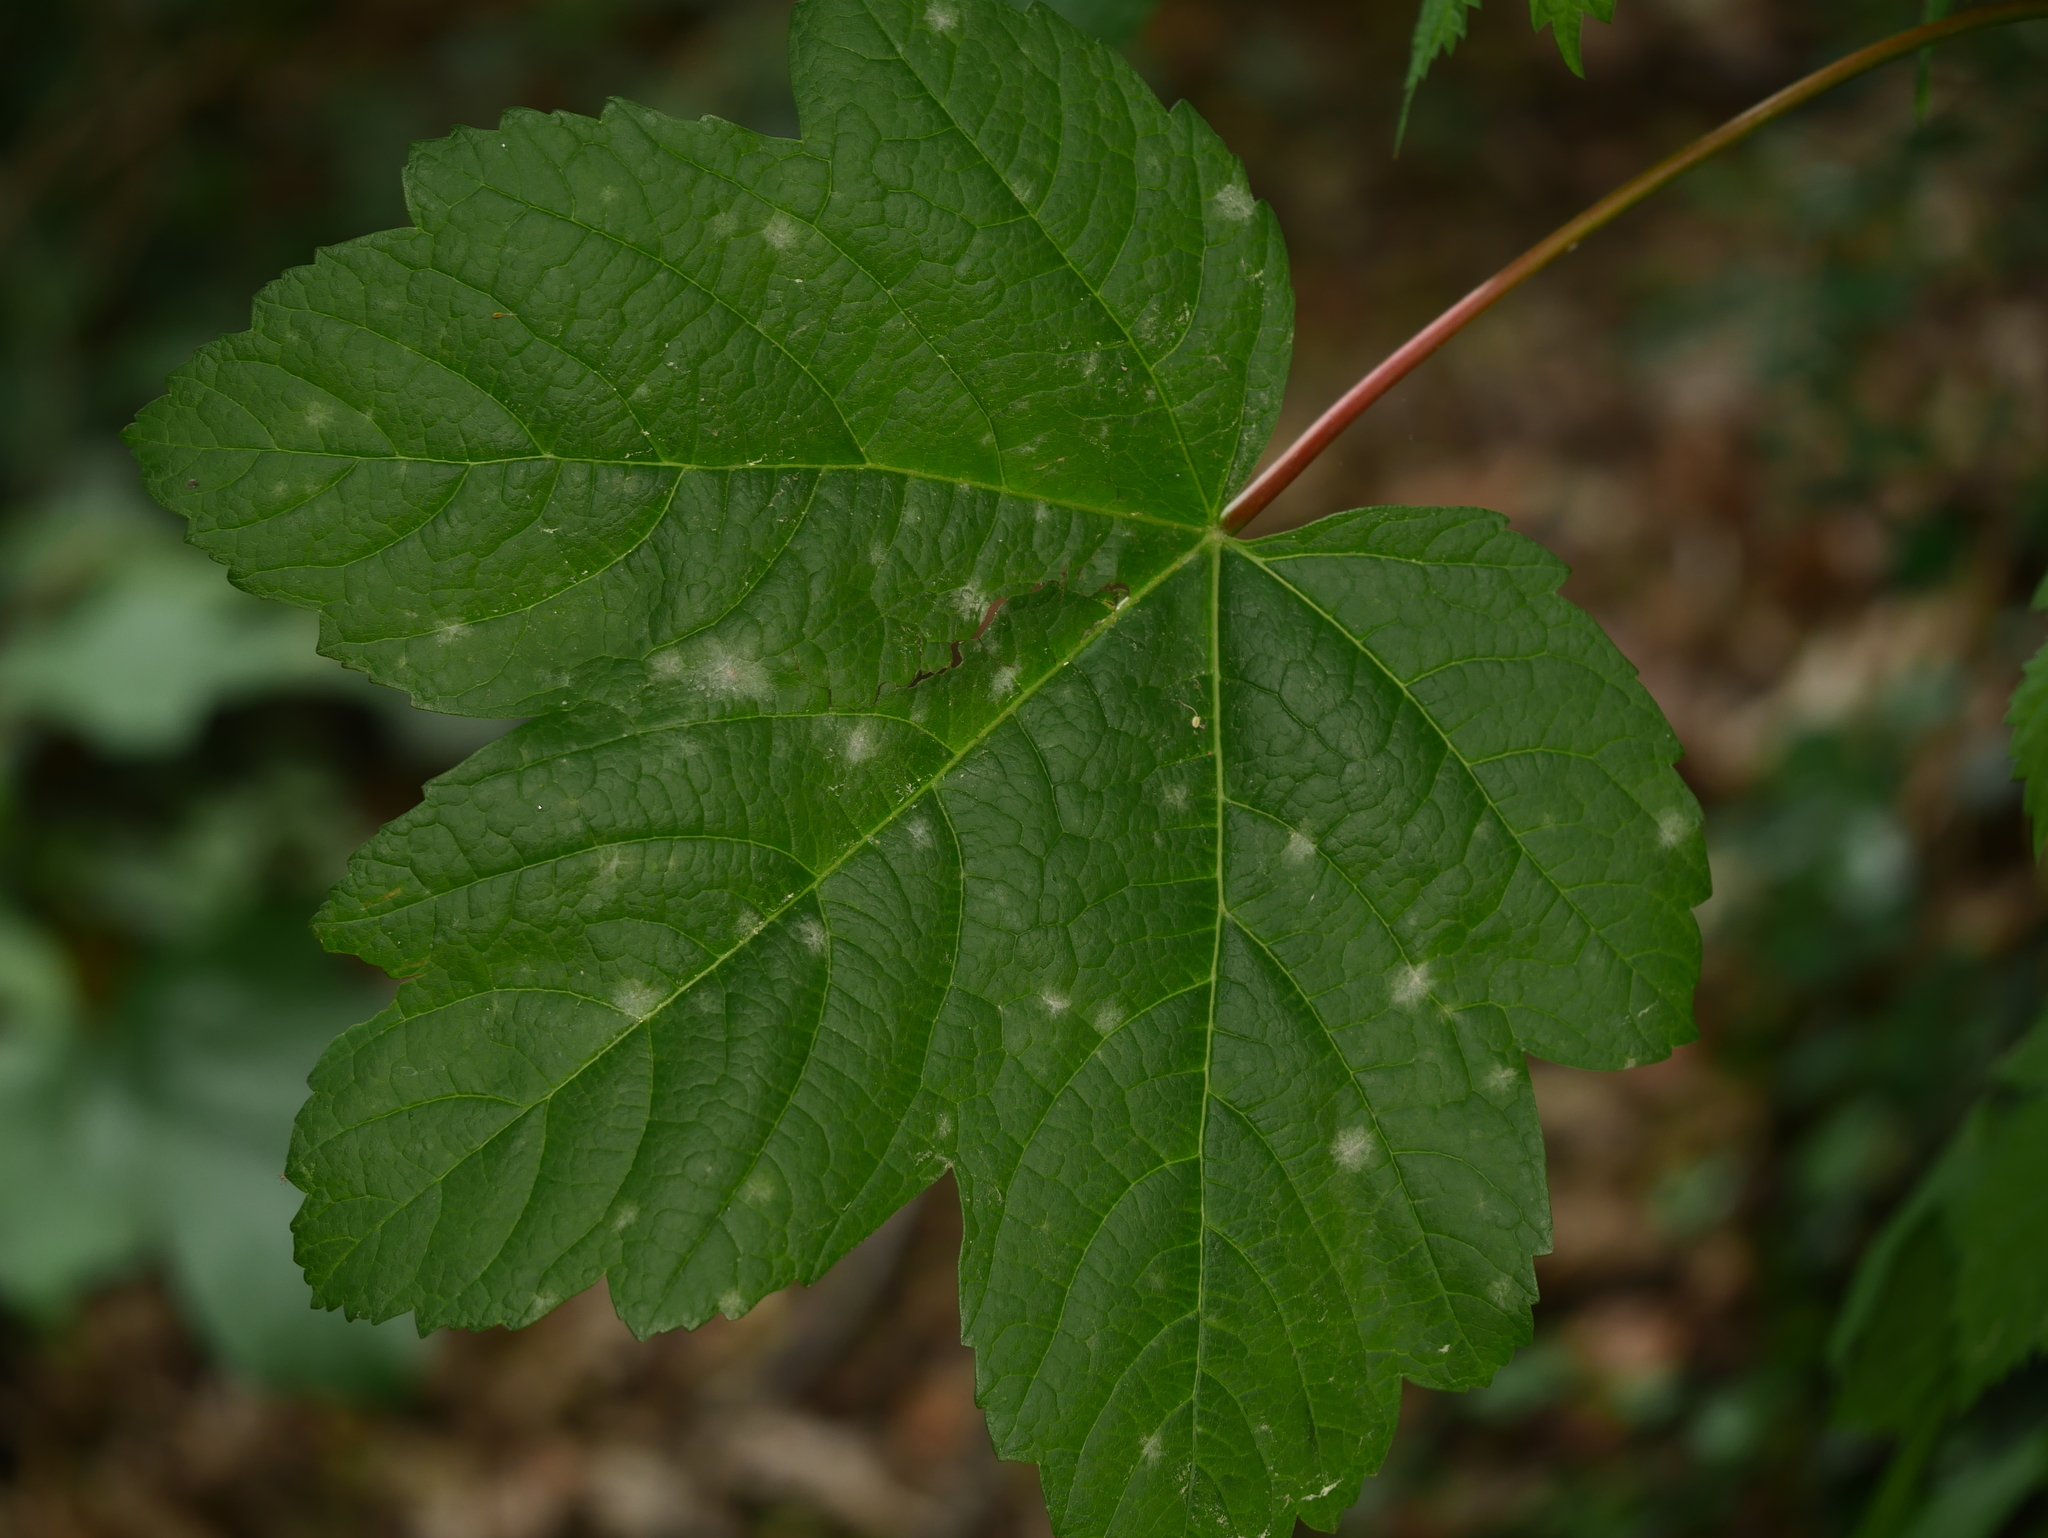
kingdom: Plantae
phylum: Tracheophyta
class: Magnoliopsida
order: Sapindales
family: Sapindaceae
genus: Acer
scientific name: Acer pseudoplatanus
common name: Sycamore
